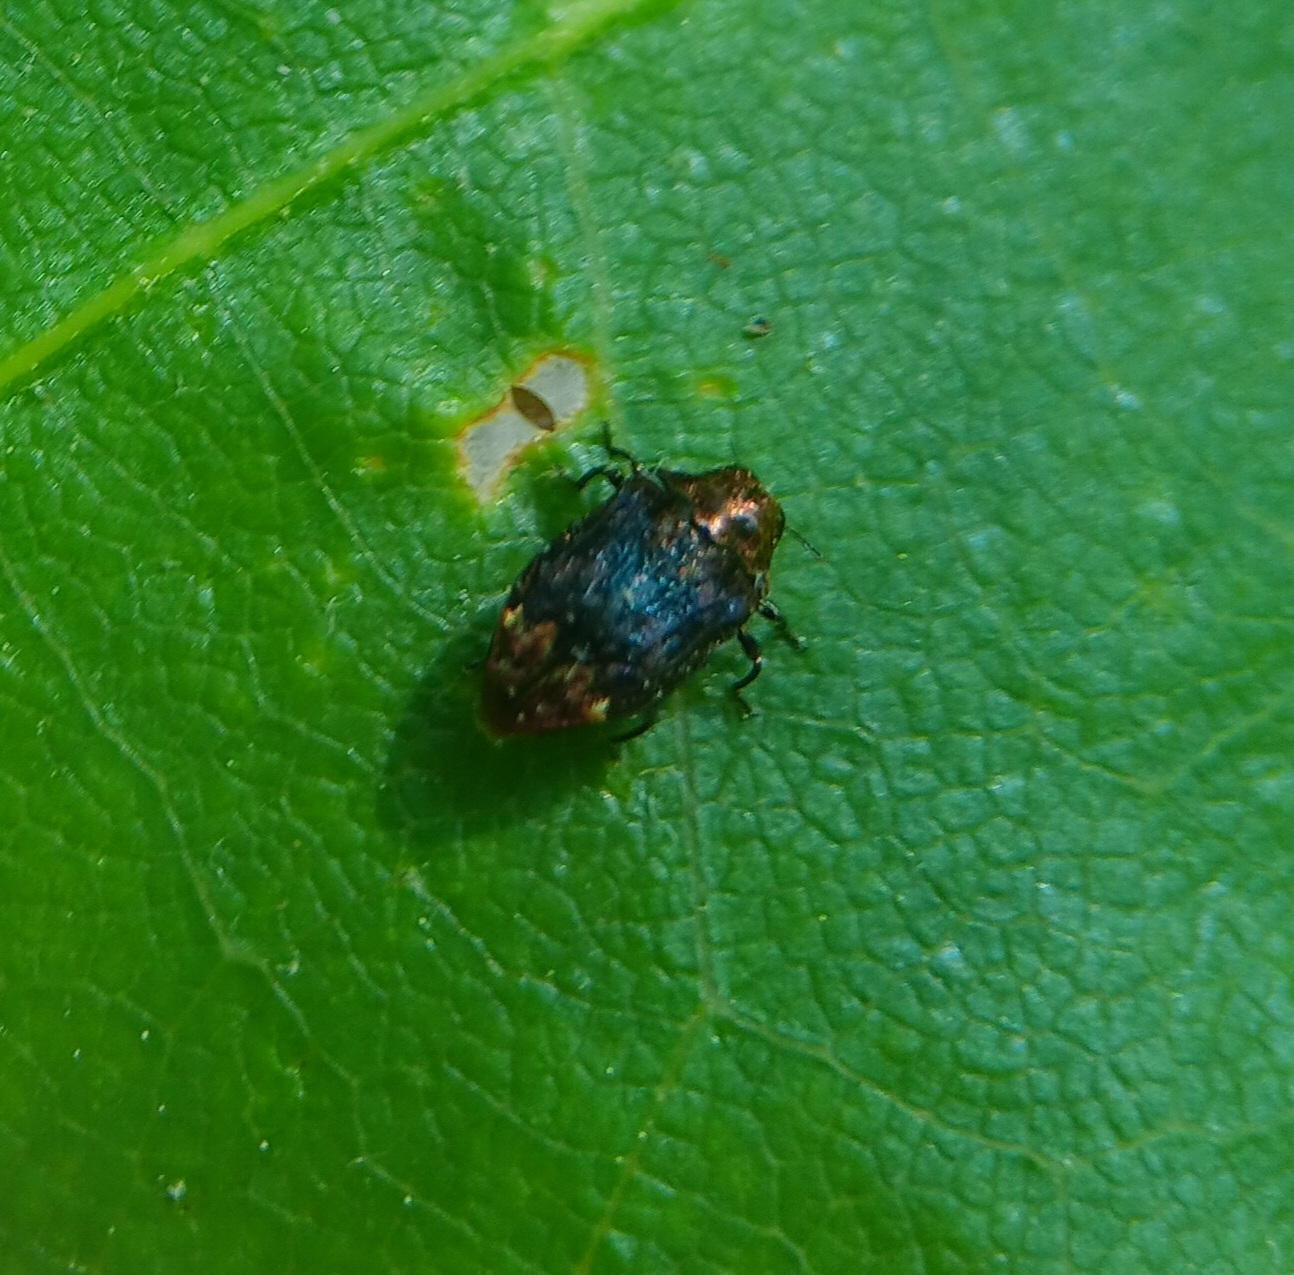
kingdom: Animalia
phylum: Arthropoda
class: Insecta
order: Coleoptera
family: Buprestidae
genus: Brachys
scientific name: Brachys aerosus
